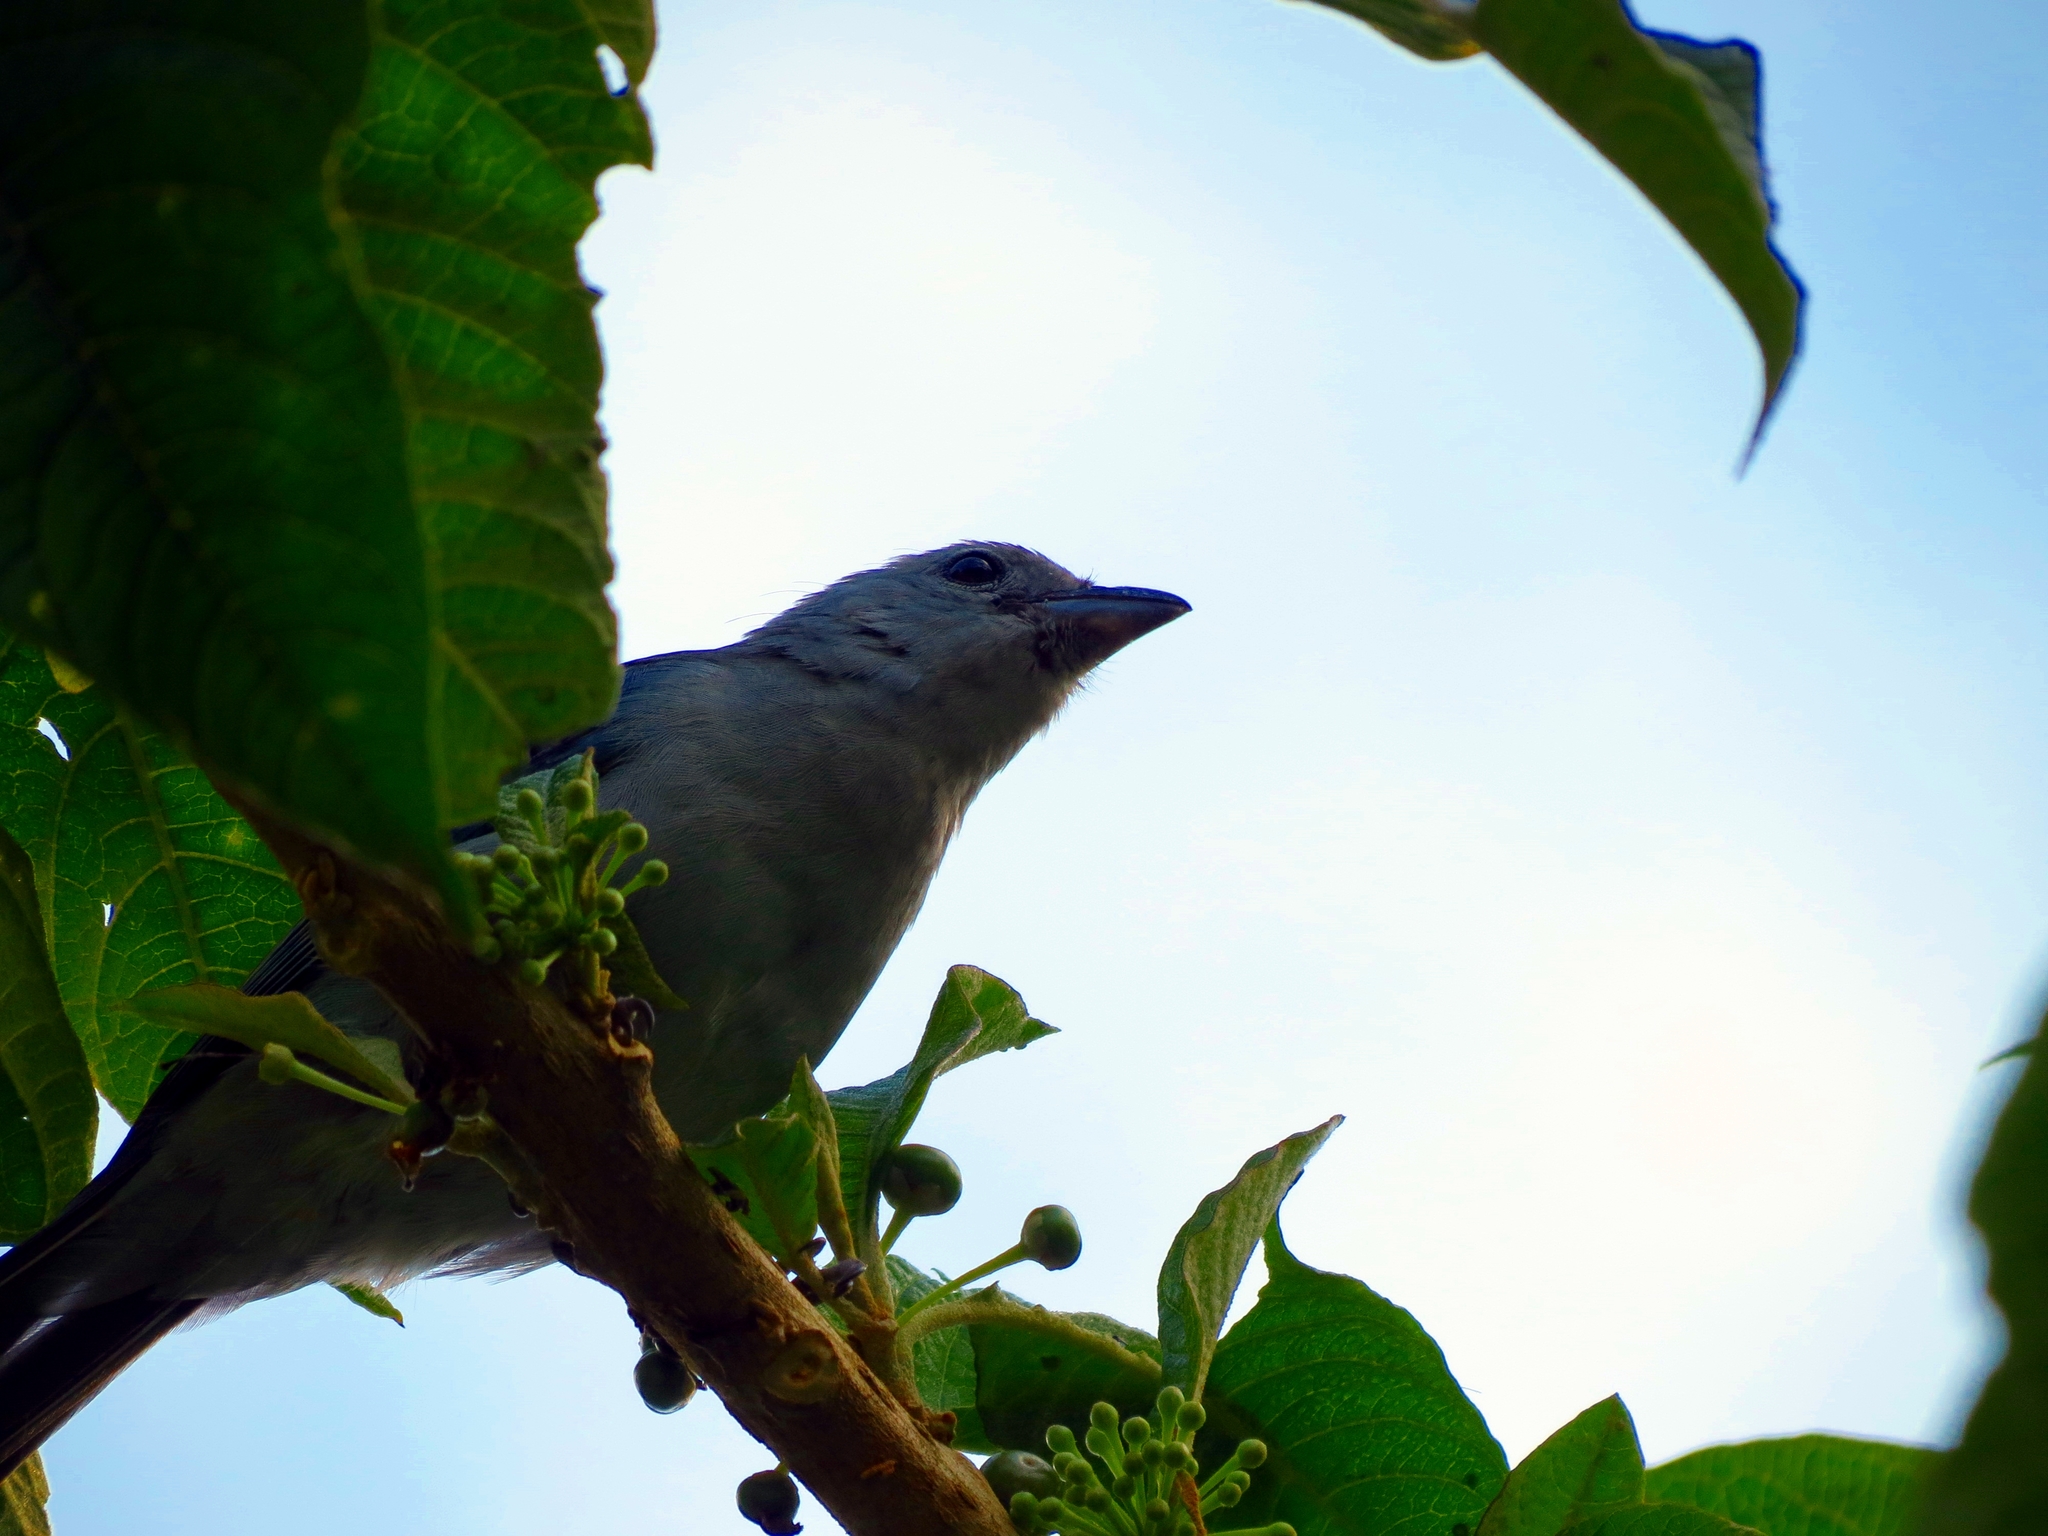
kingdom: Animalia
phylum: Chordata
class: Aves
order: Passeriformes
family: Thraupidae
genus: Thraupis
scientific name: Thraupis episcopus
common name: Blue-grey tanager
